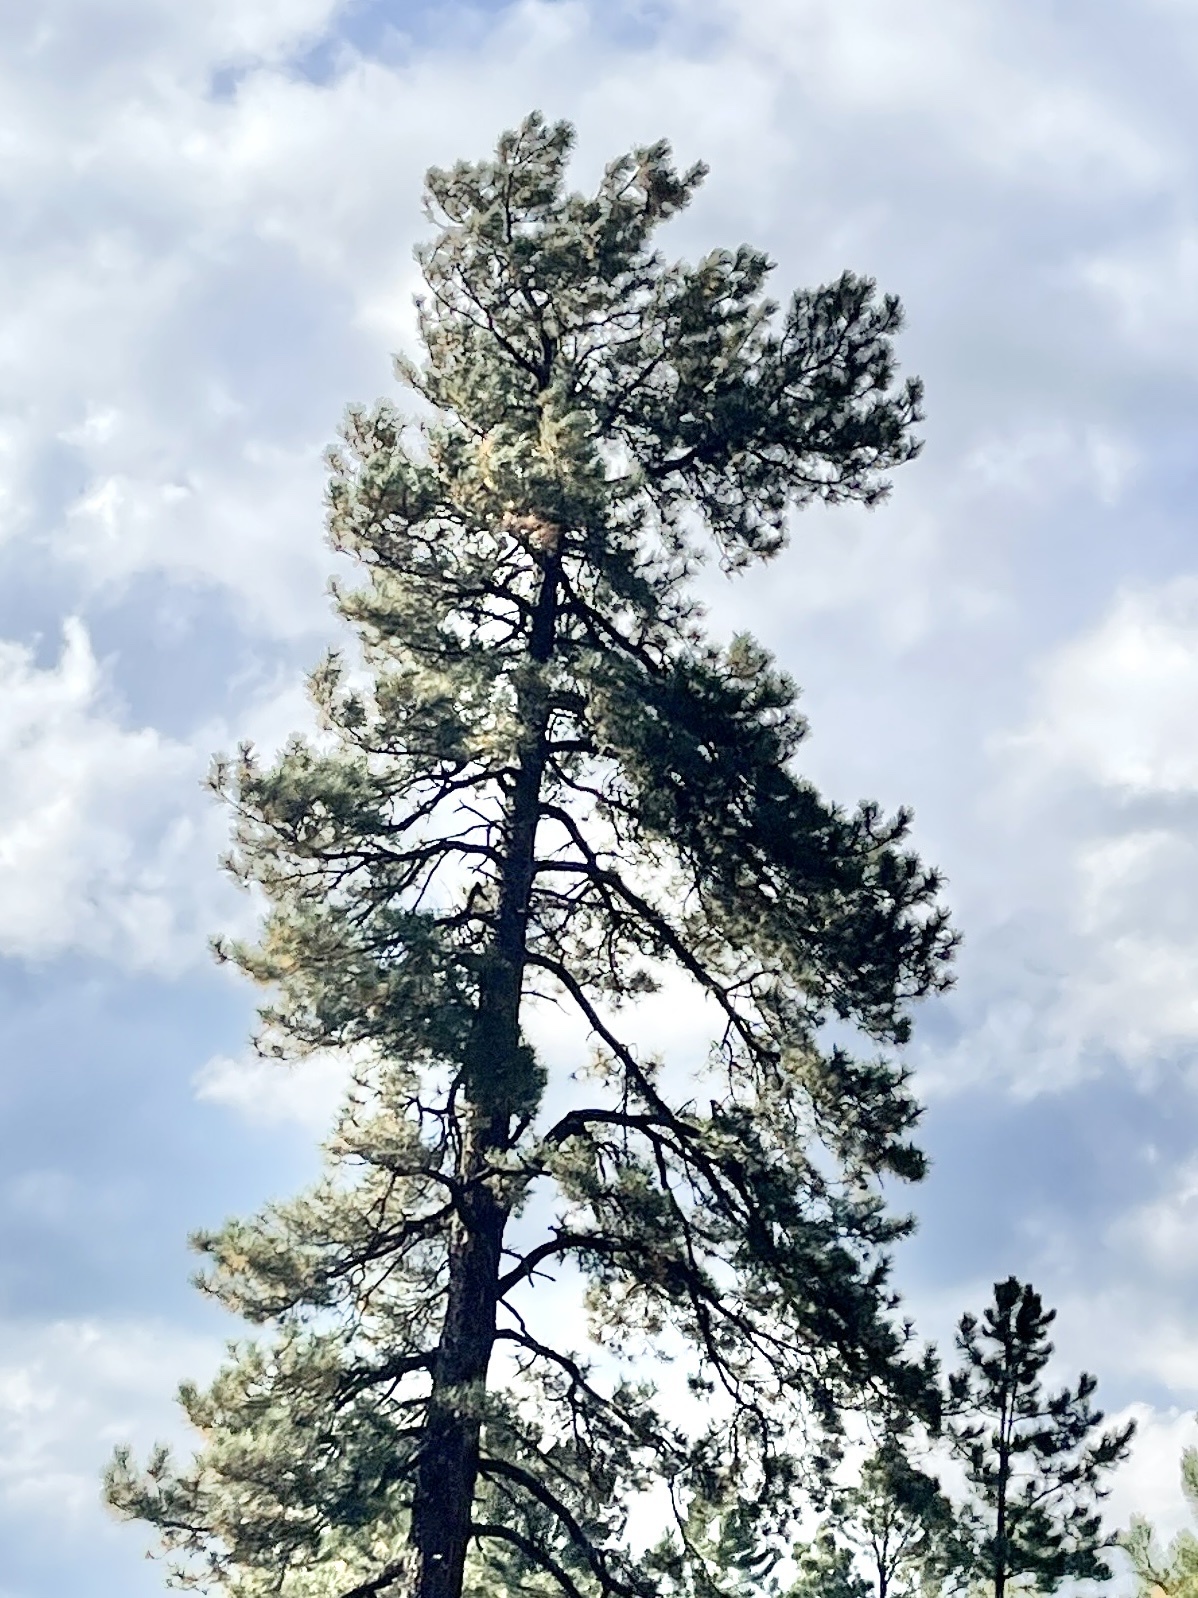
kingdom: Plantae
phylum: Tracheophyta
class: Pinopsida
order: Pinales
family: Pinaceae
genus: Pinus
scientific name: Pinus ponderosa
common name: Western yellow-pine
